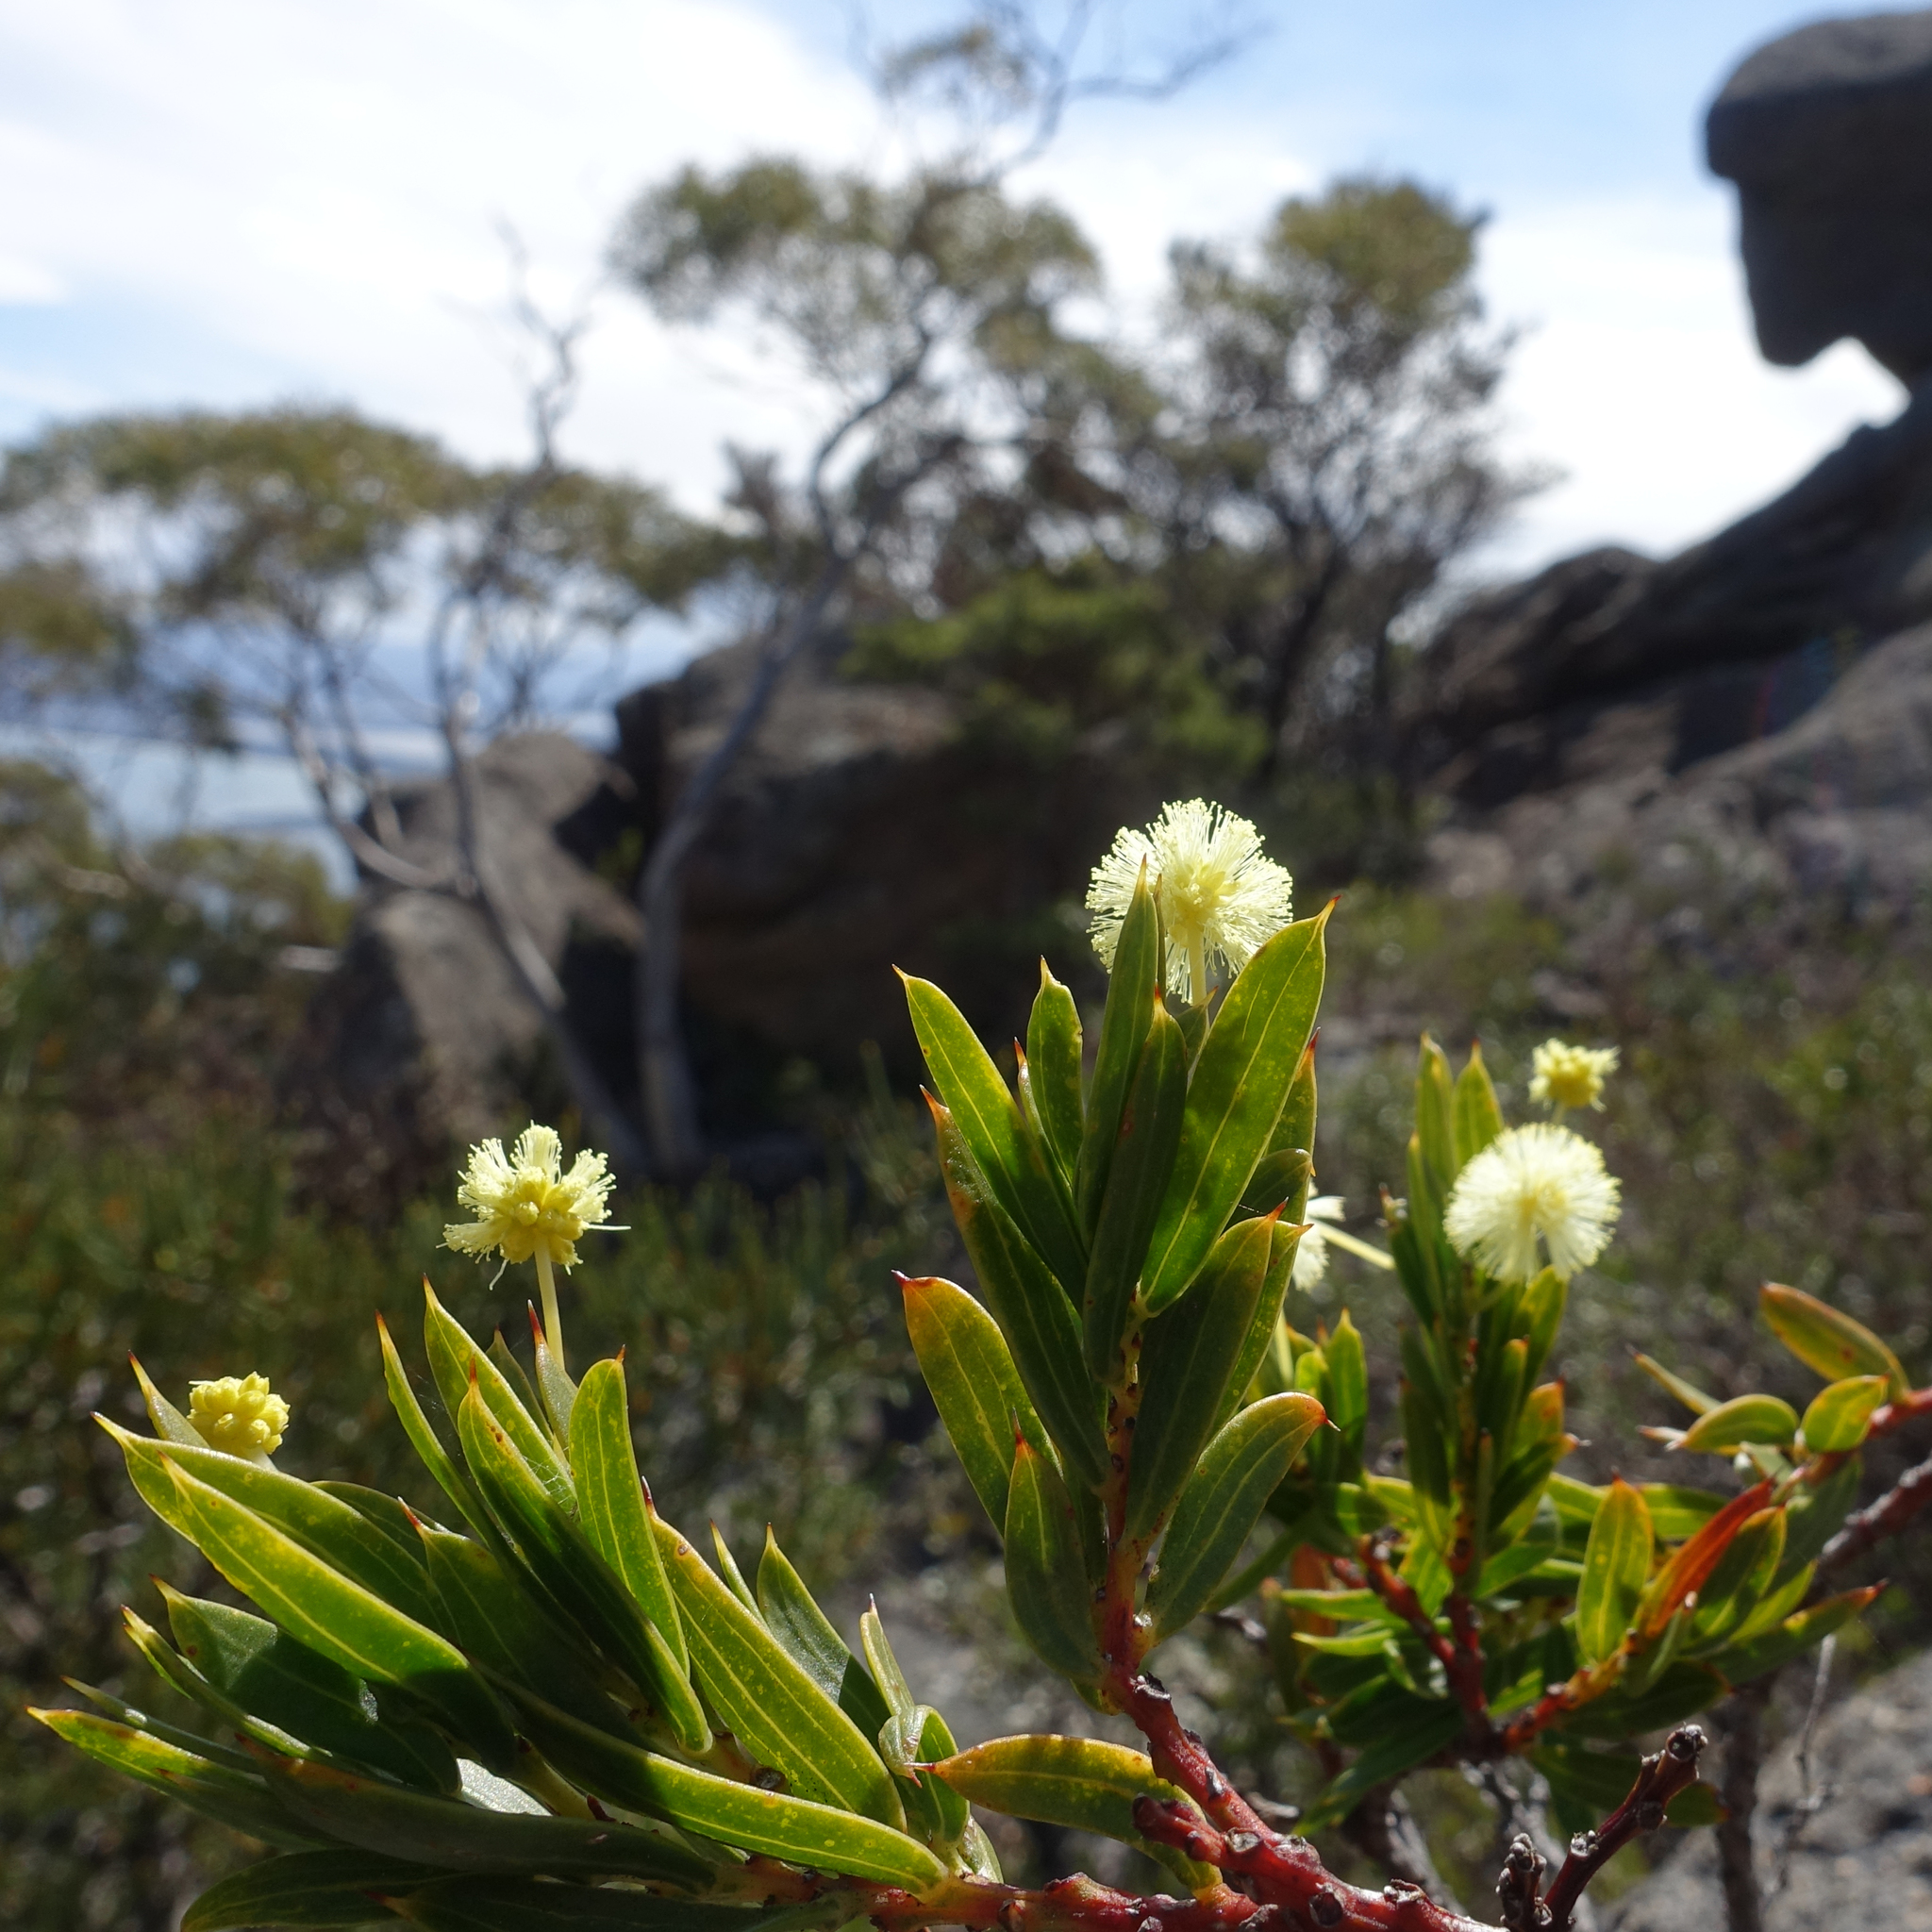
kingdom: Plantae
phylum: Tracheophyta
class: Magnoliopsida
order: Fabales
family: Fabaceae
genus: Acacia
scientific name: Acacia genistifolia
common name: Early wattle
